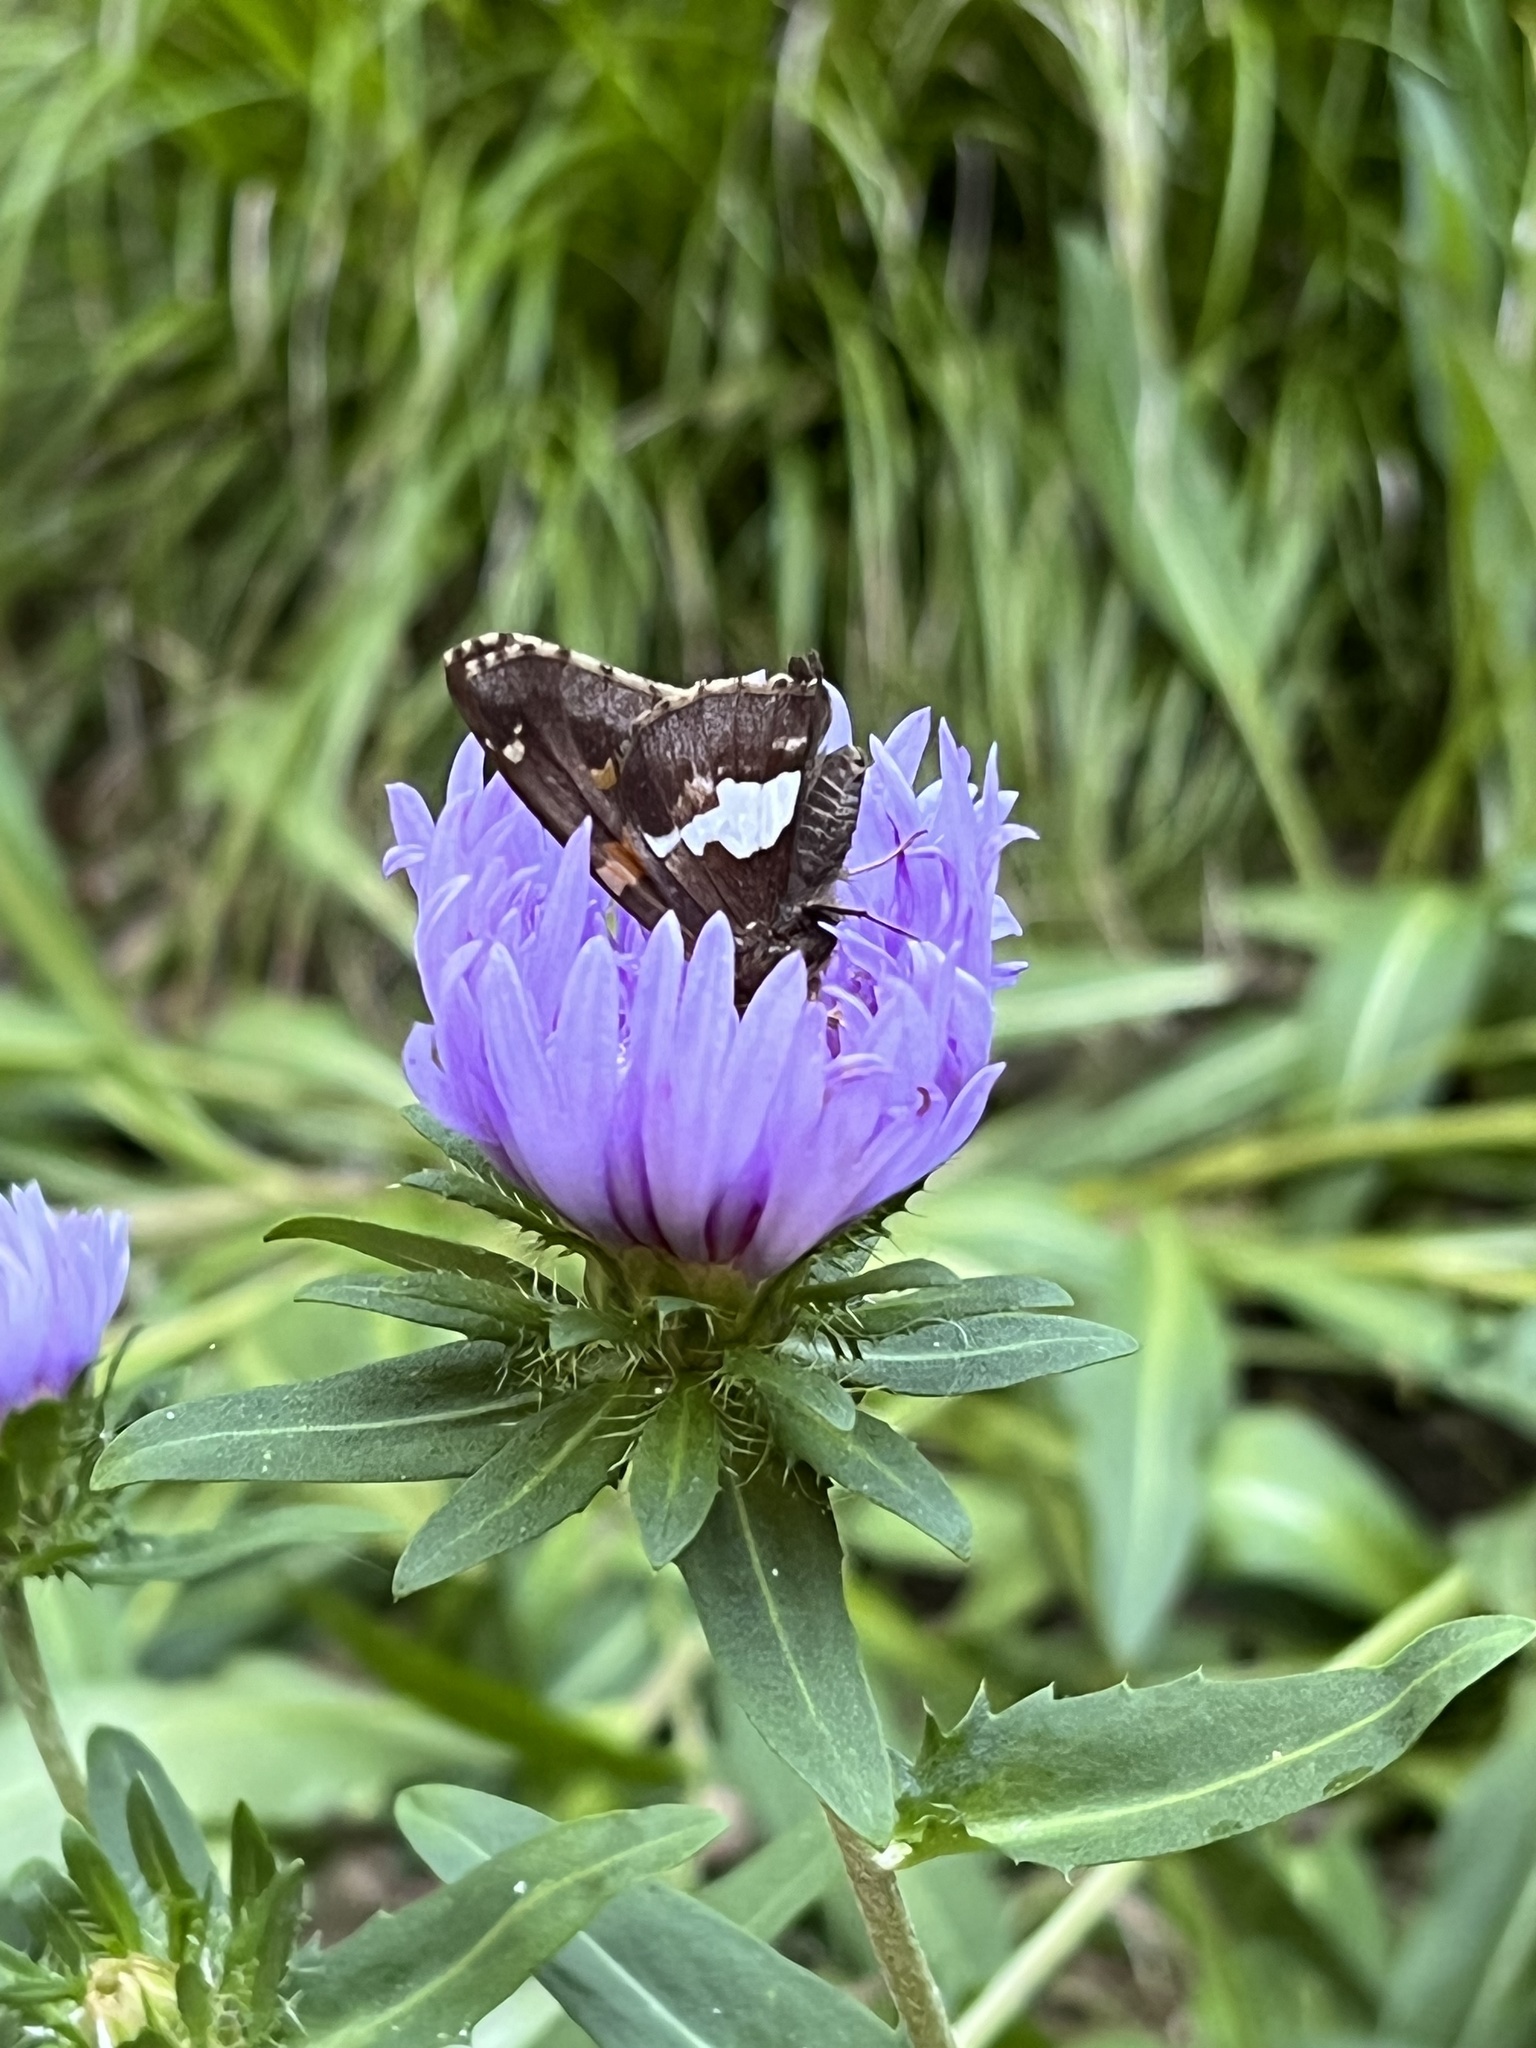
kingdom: Animalia
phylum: Arthropoda
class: Insecta
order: Lepidoptera
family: Hesperiidae
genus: Epargyreus
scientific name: Epargyreus clarus
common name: Silver-spotted skipper
